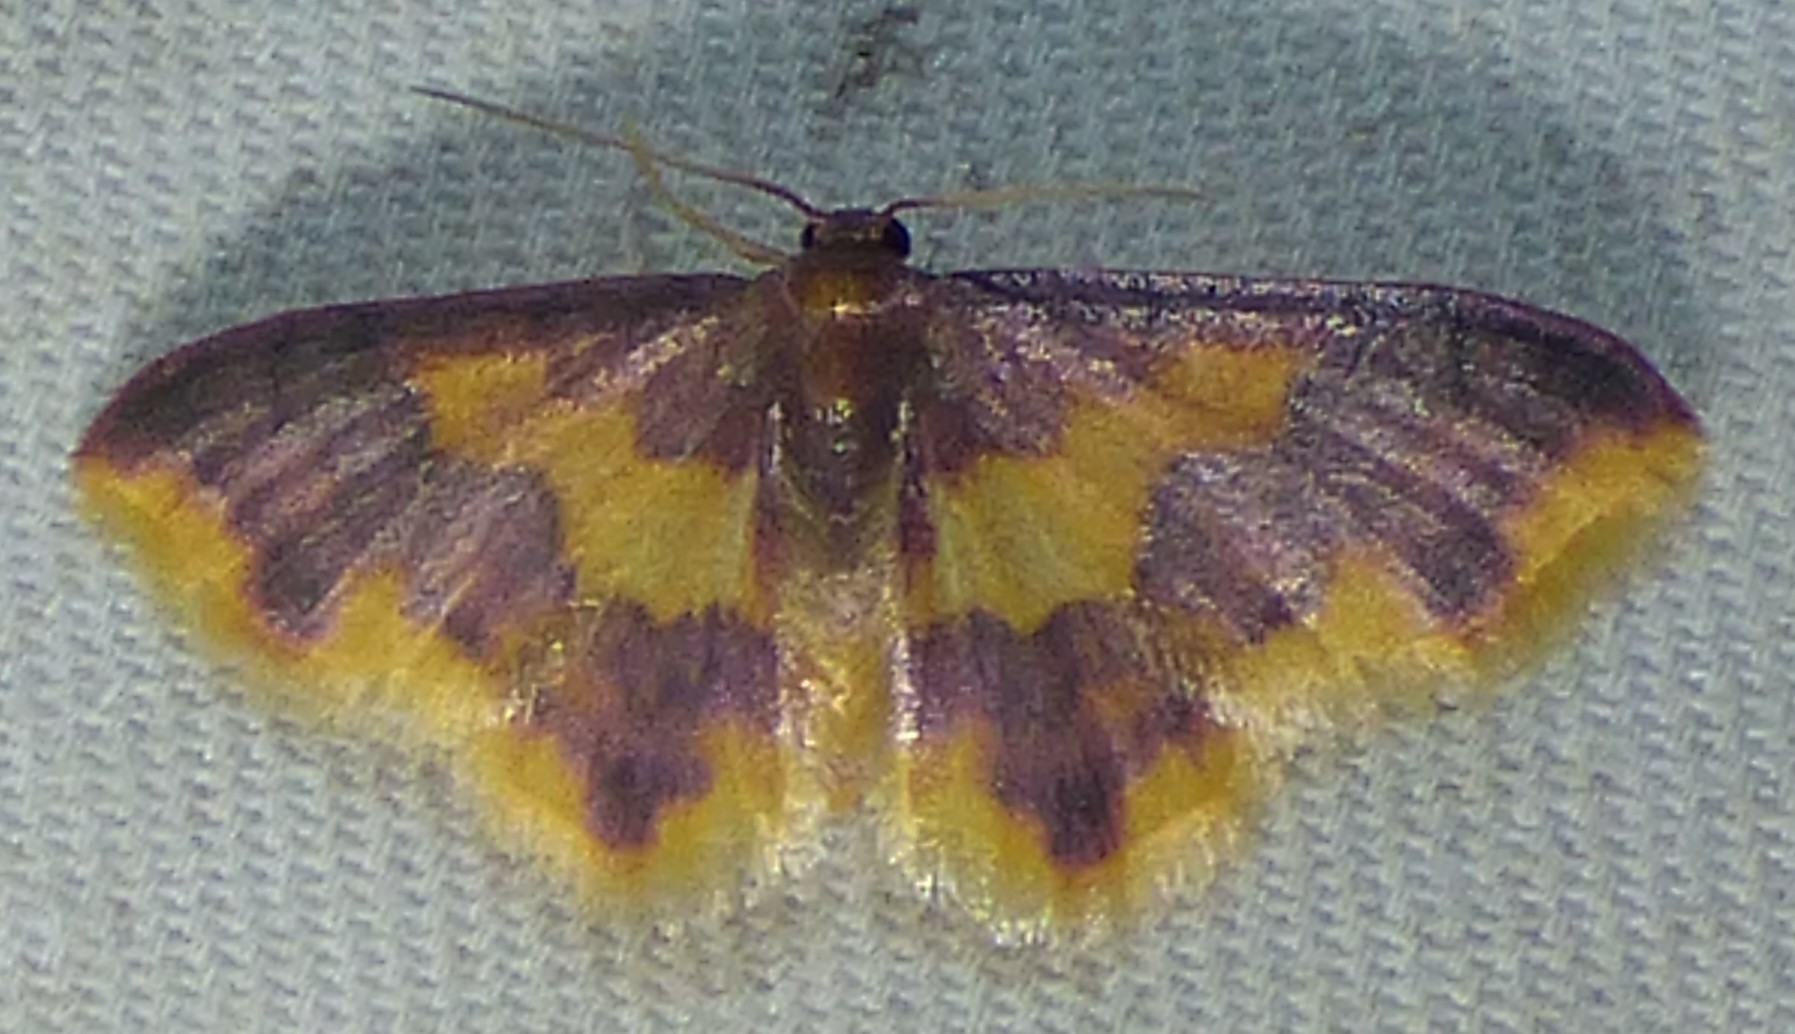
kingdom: Animalia
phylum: Arthropoda
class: Insecta
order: Lepidoptera
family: Geometridae
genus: Lophosis
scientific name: Lophosis labeculata
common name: Stained lophosis moth
